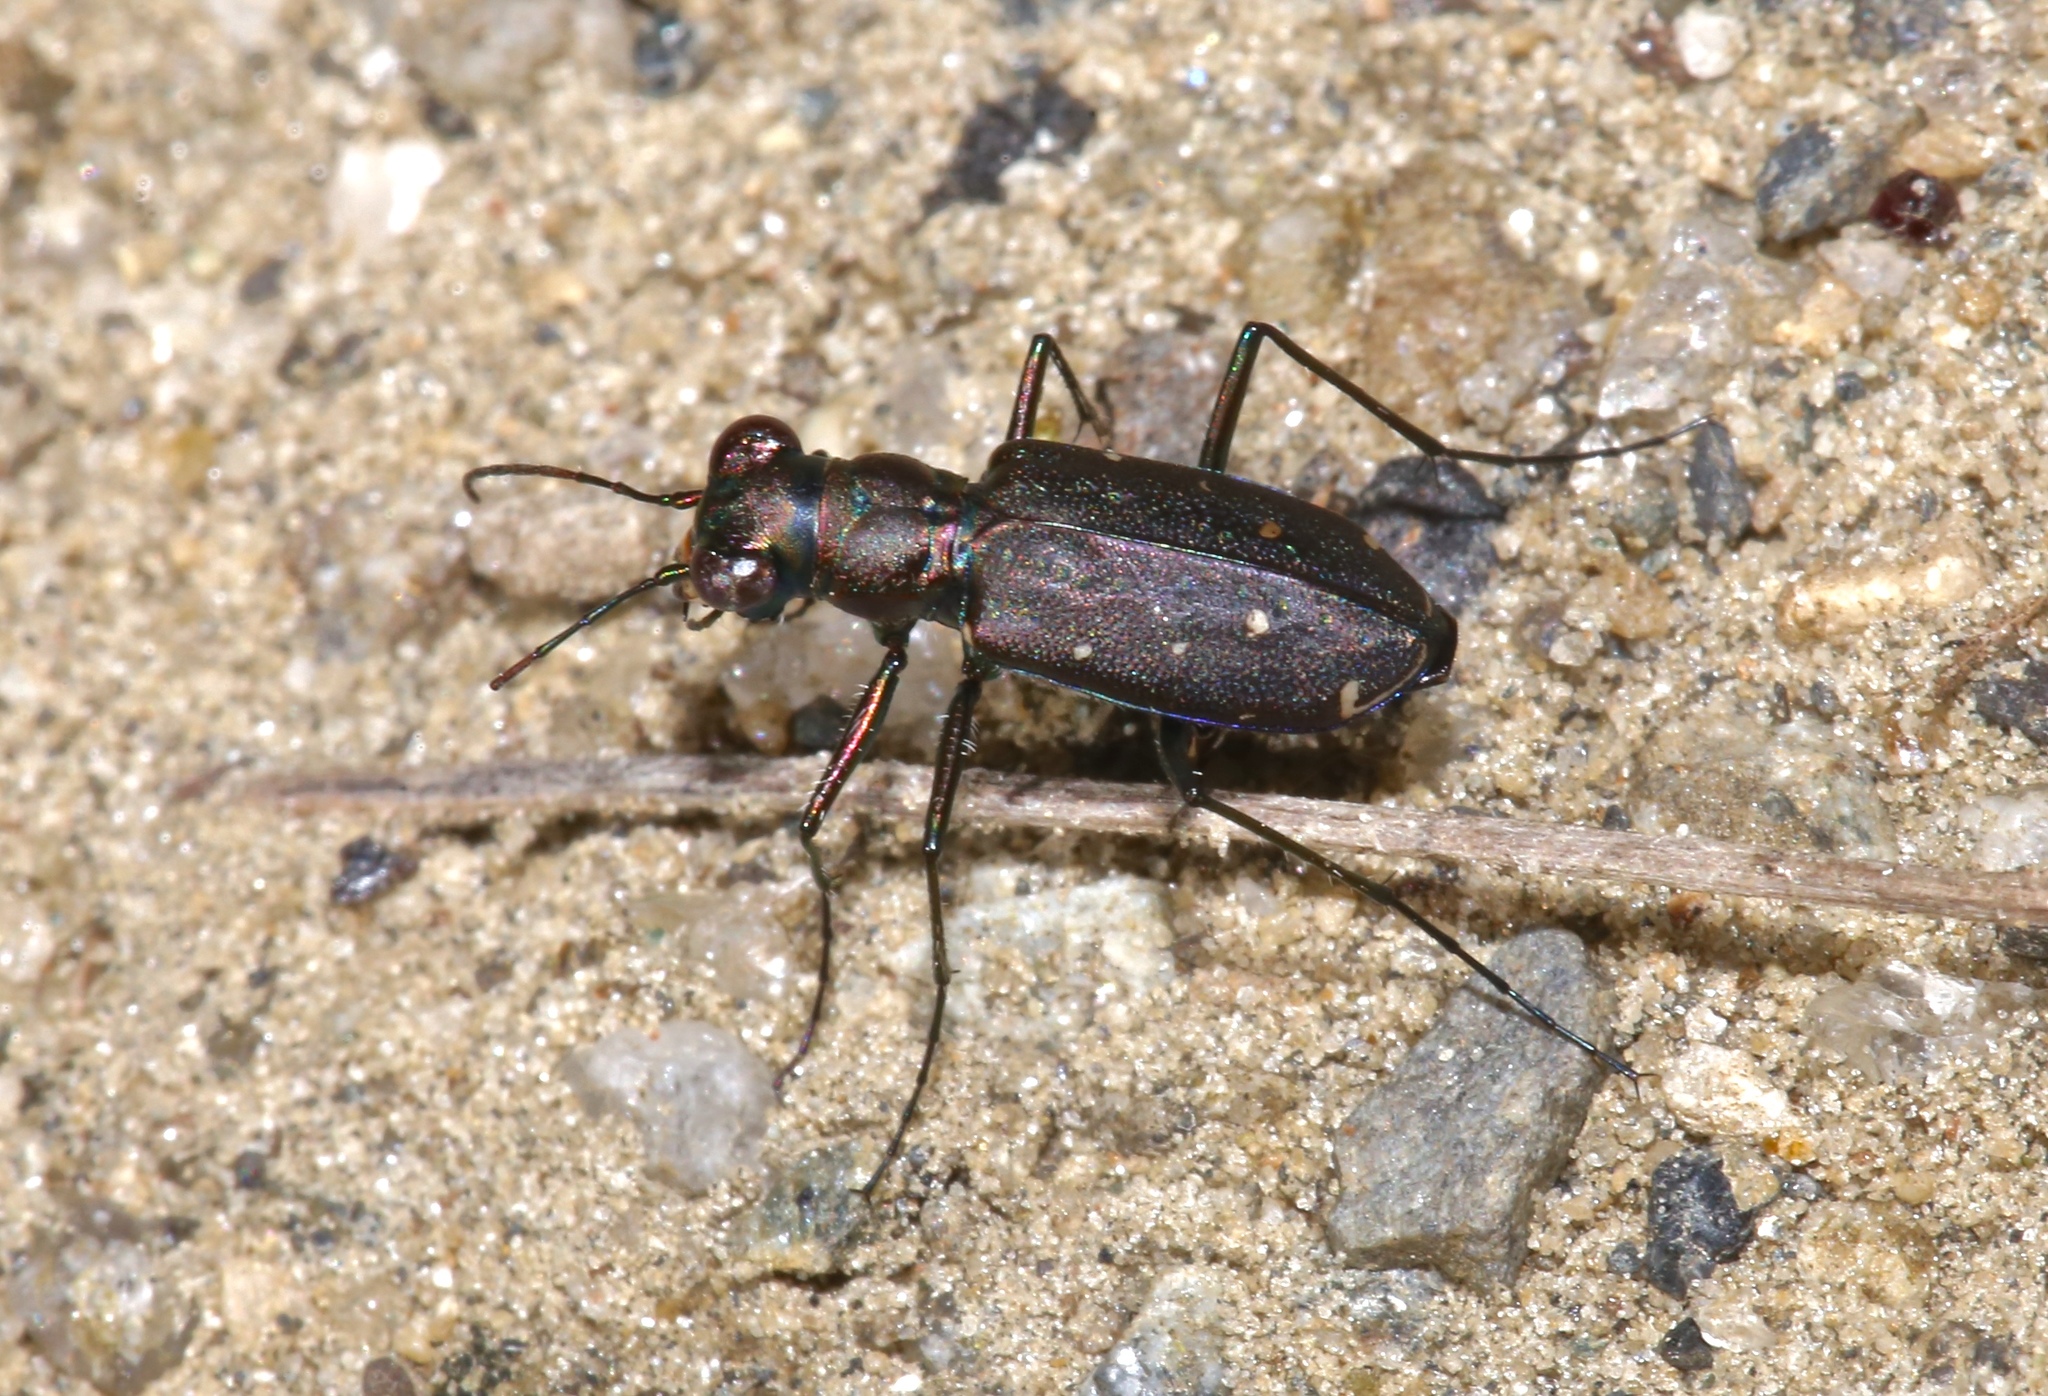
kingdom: Animalia
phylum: Arthropoda
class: Insecta
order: Coleoptera
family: Carabidae
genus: Cicindela
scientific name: Cicindela punctulata
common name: Punctured tiger beetle
